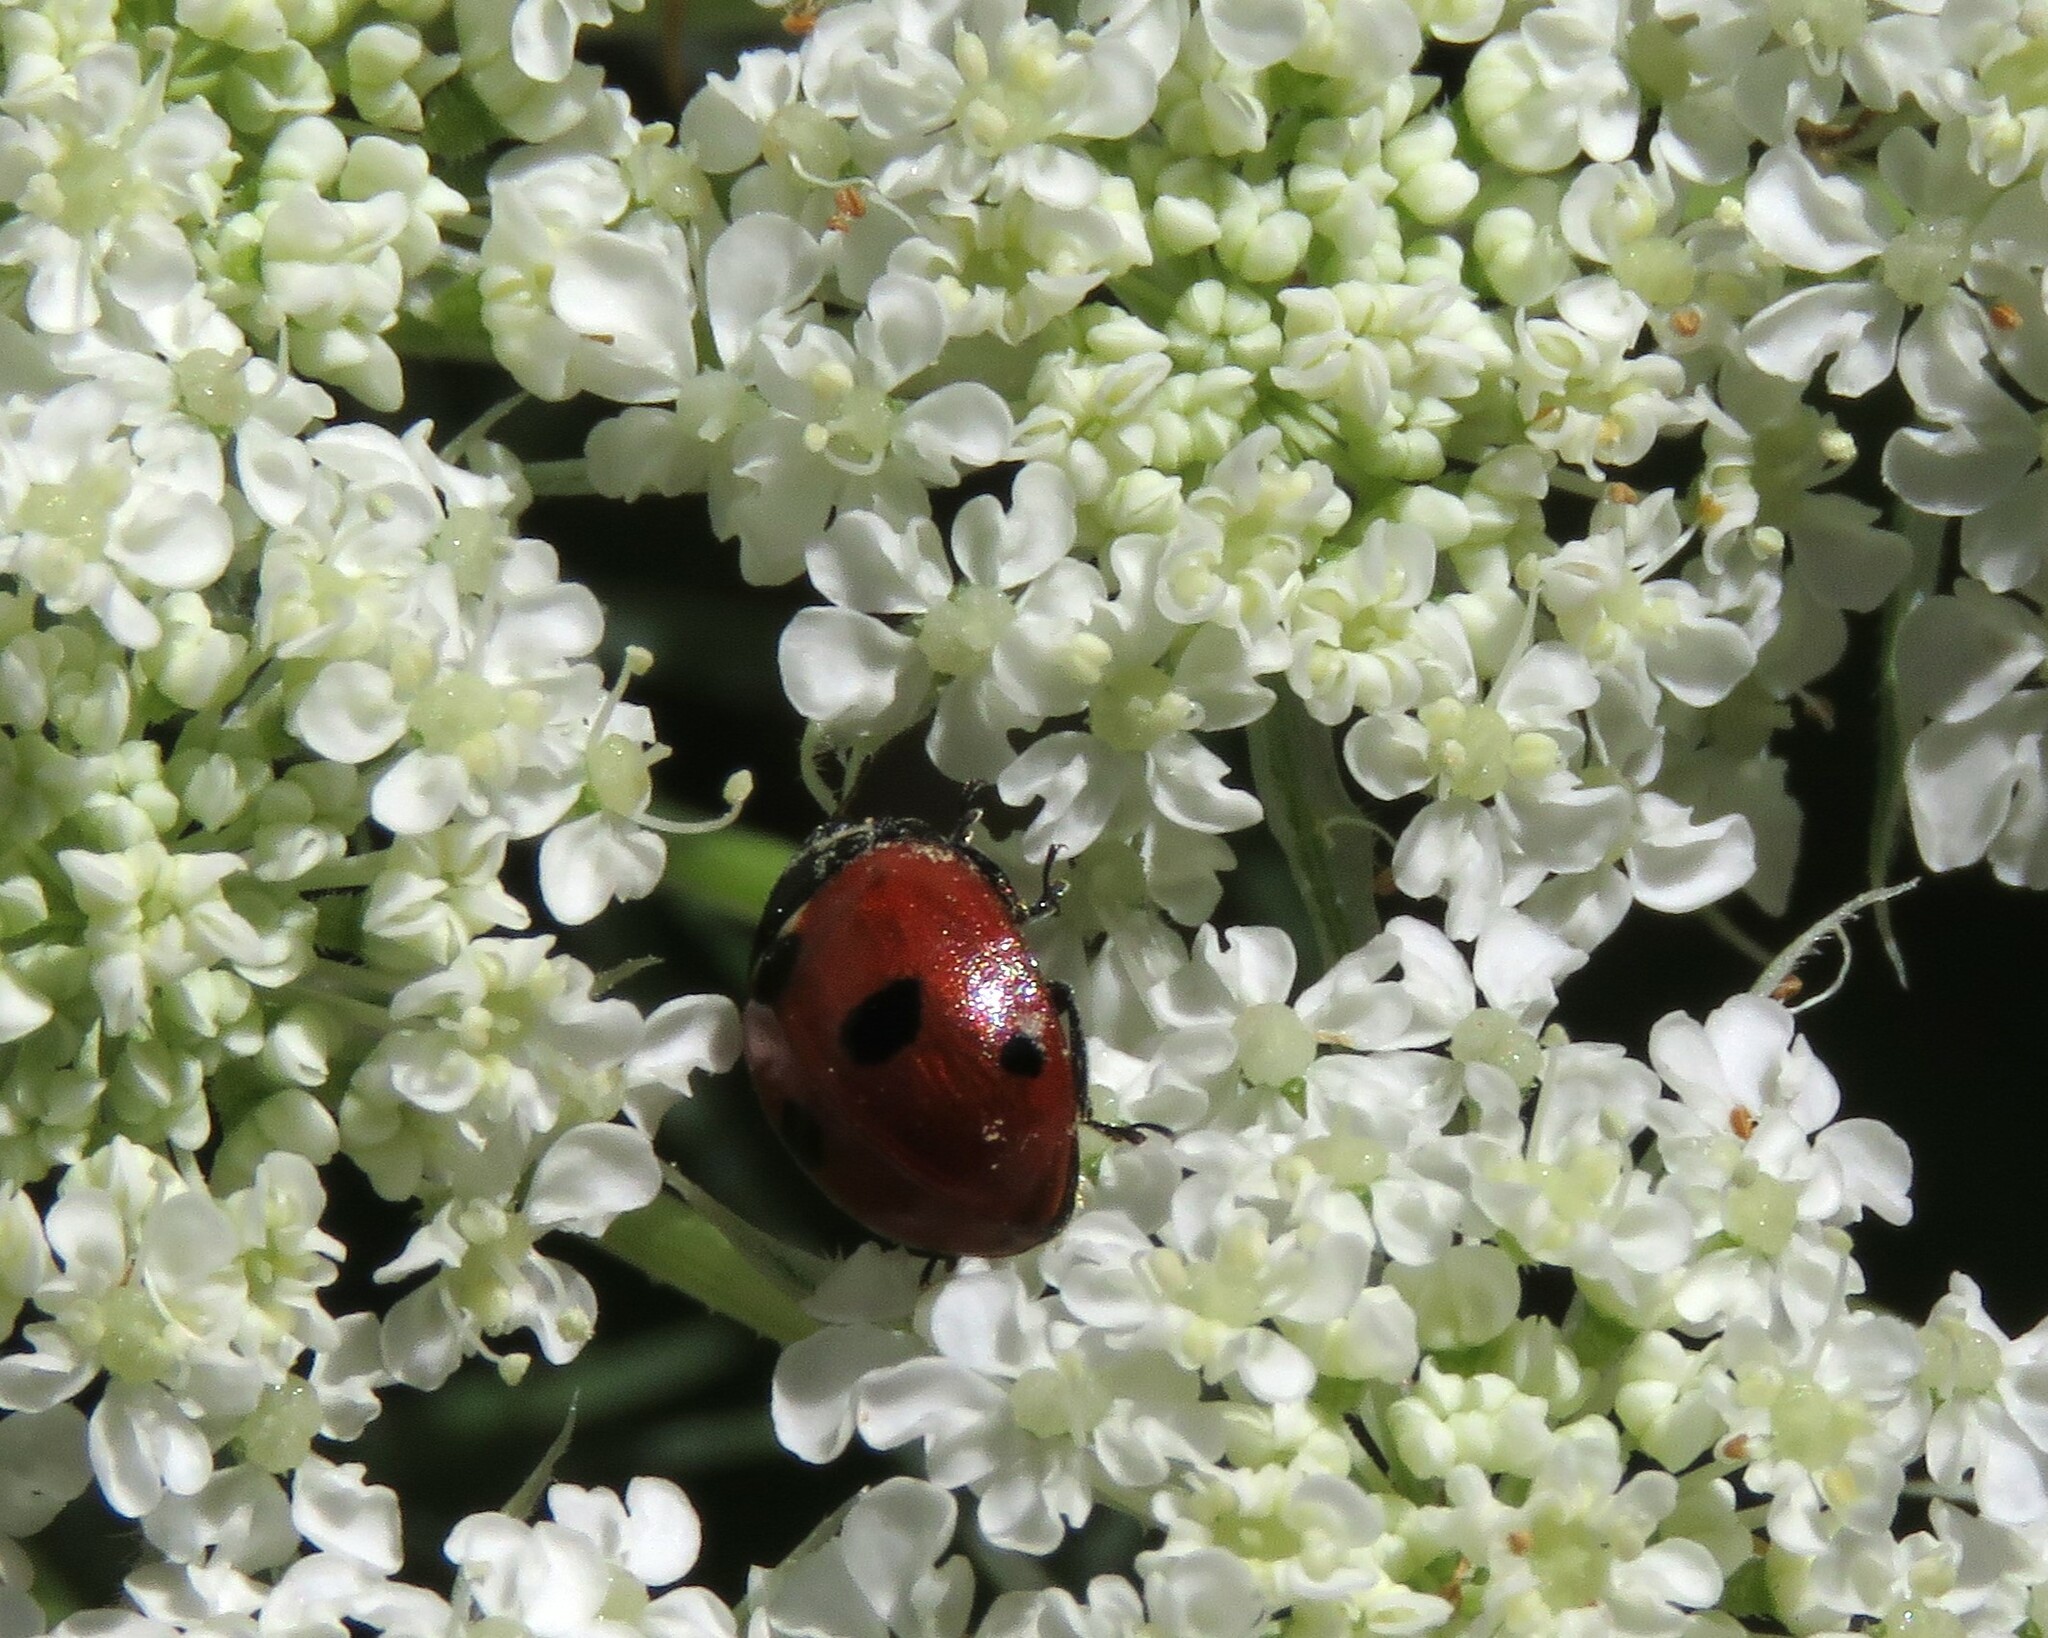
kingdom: Animalia
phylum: Arthropoda
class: Insecta
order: Coleoptera
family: Coccinellidae
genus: Coccinella
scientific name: Coccinella quinquepunctata
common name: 5-spot ladybird
